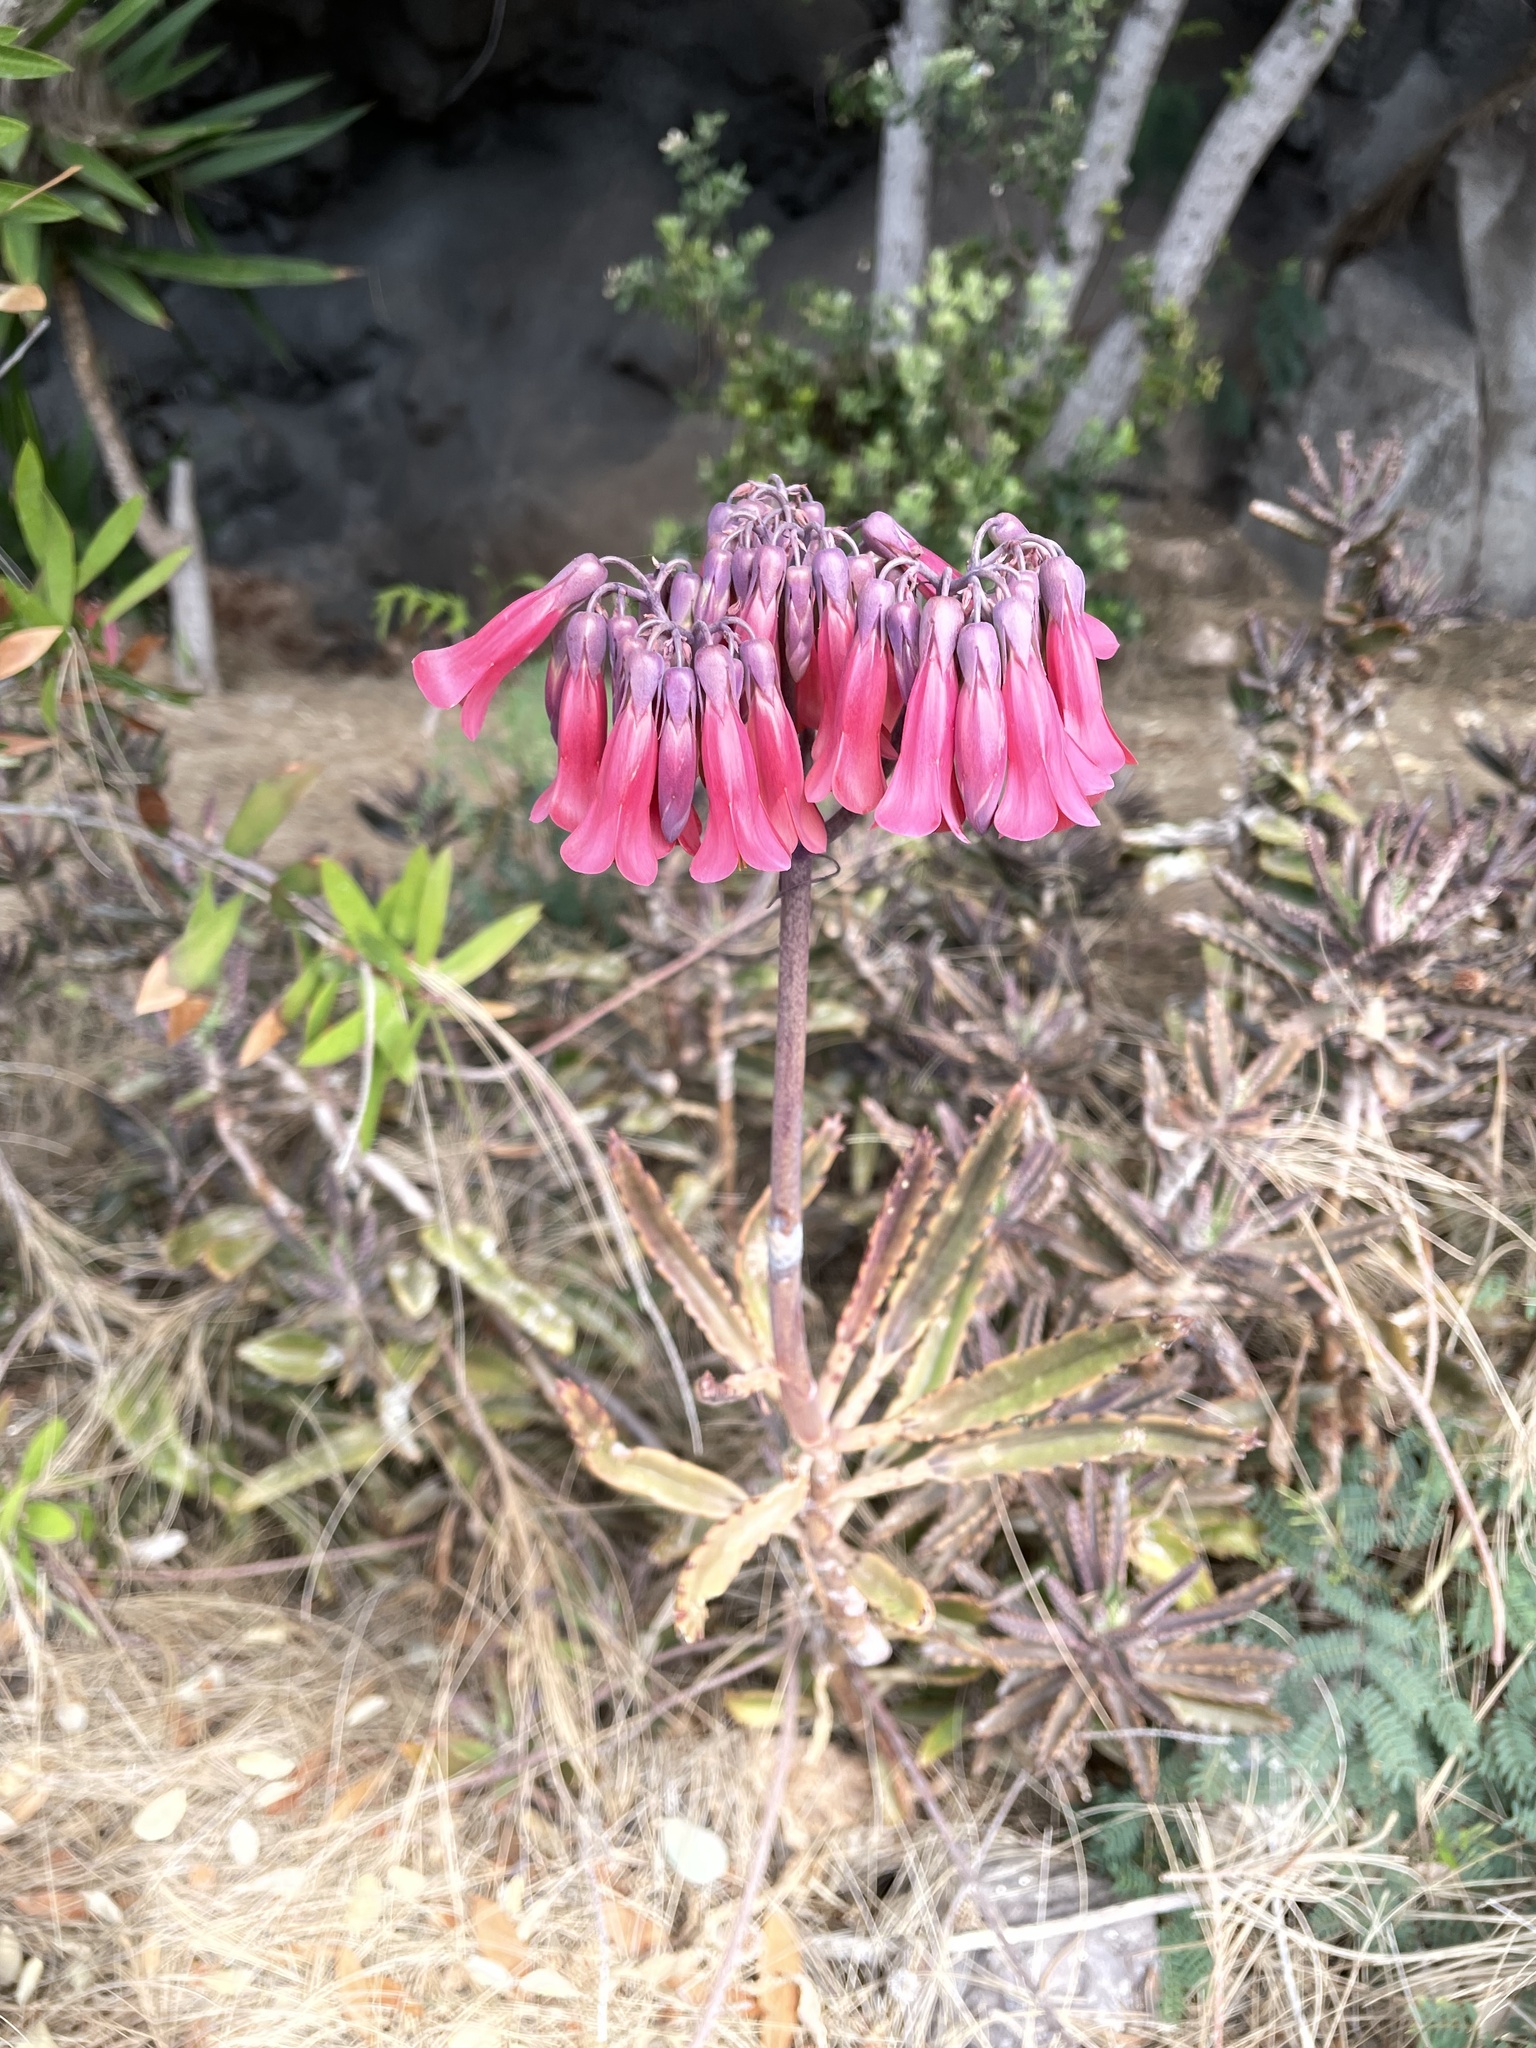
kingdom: Plantae
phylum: Tracheophyta
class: Magnoliopsida
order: Saxifragales
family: Crassulaceae
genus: Kalanchoe
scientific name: Kalanchoe houghtonii
